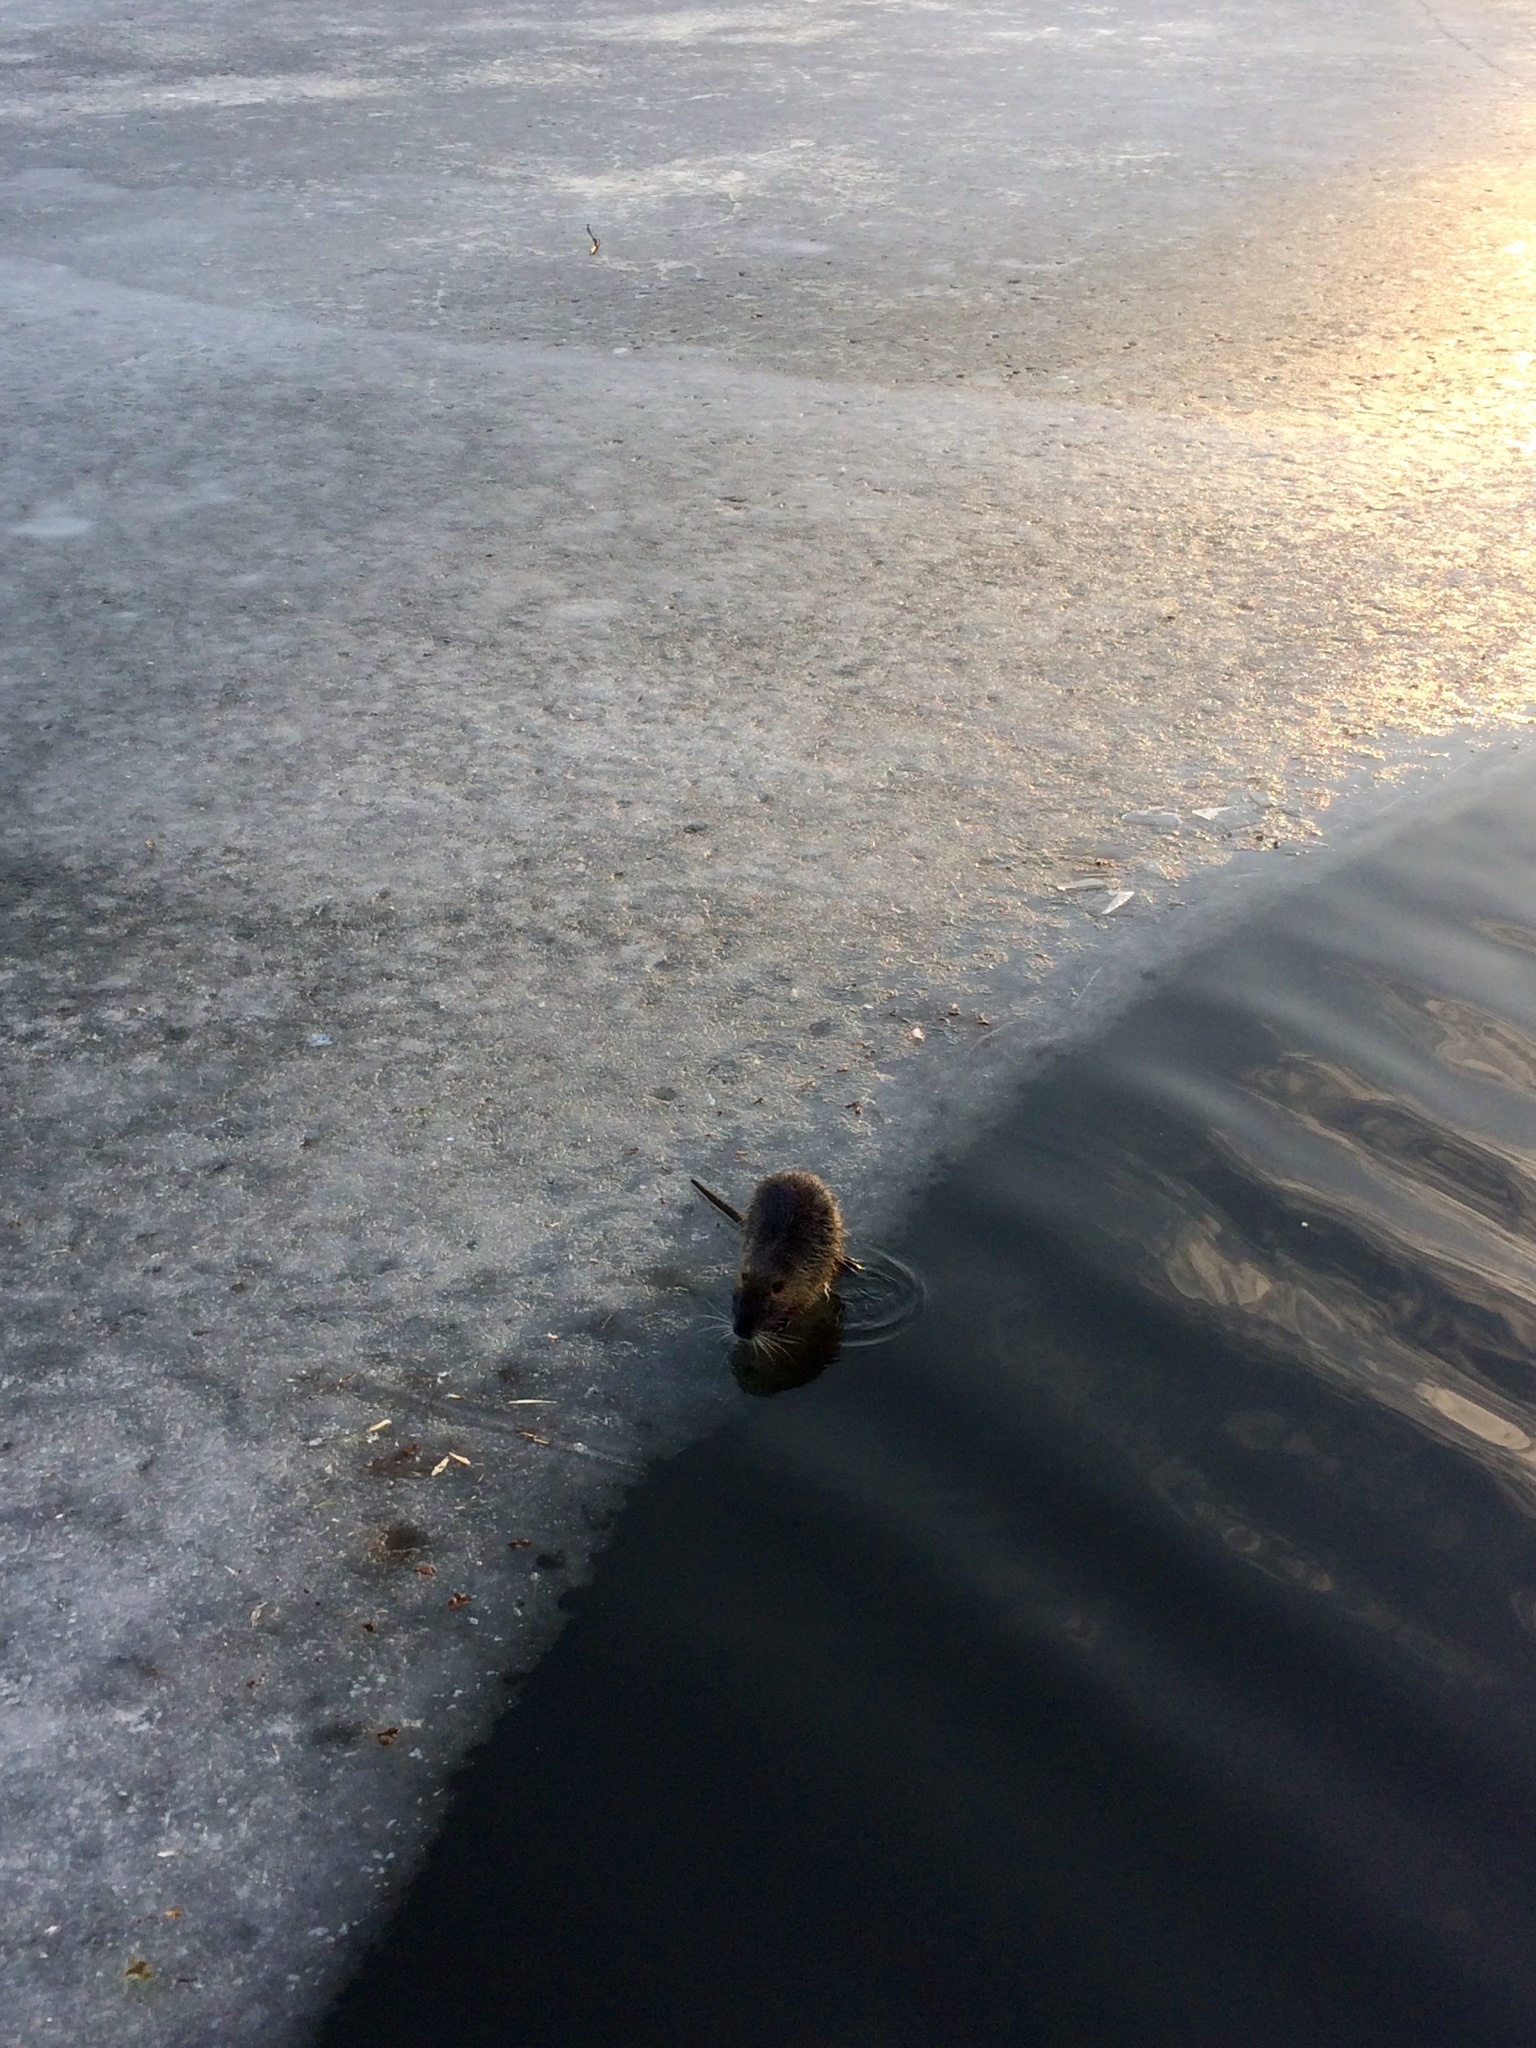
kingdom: Animalia
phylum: Chordata
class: Mammalia
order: Rodentia
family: Myocastoridae
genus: Myocastor
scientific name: Myocastor coypus
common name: Coypu
